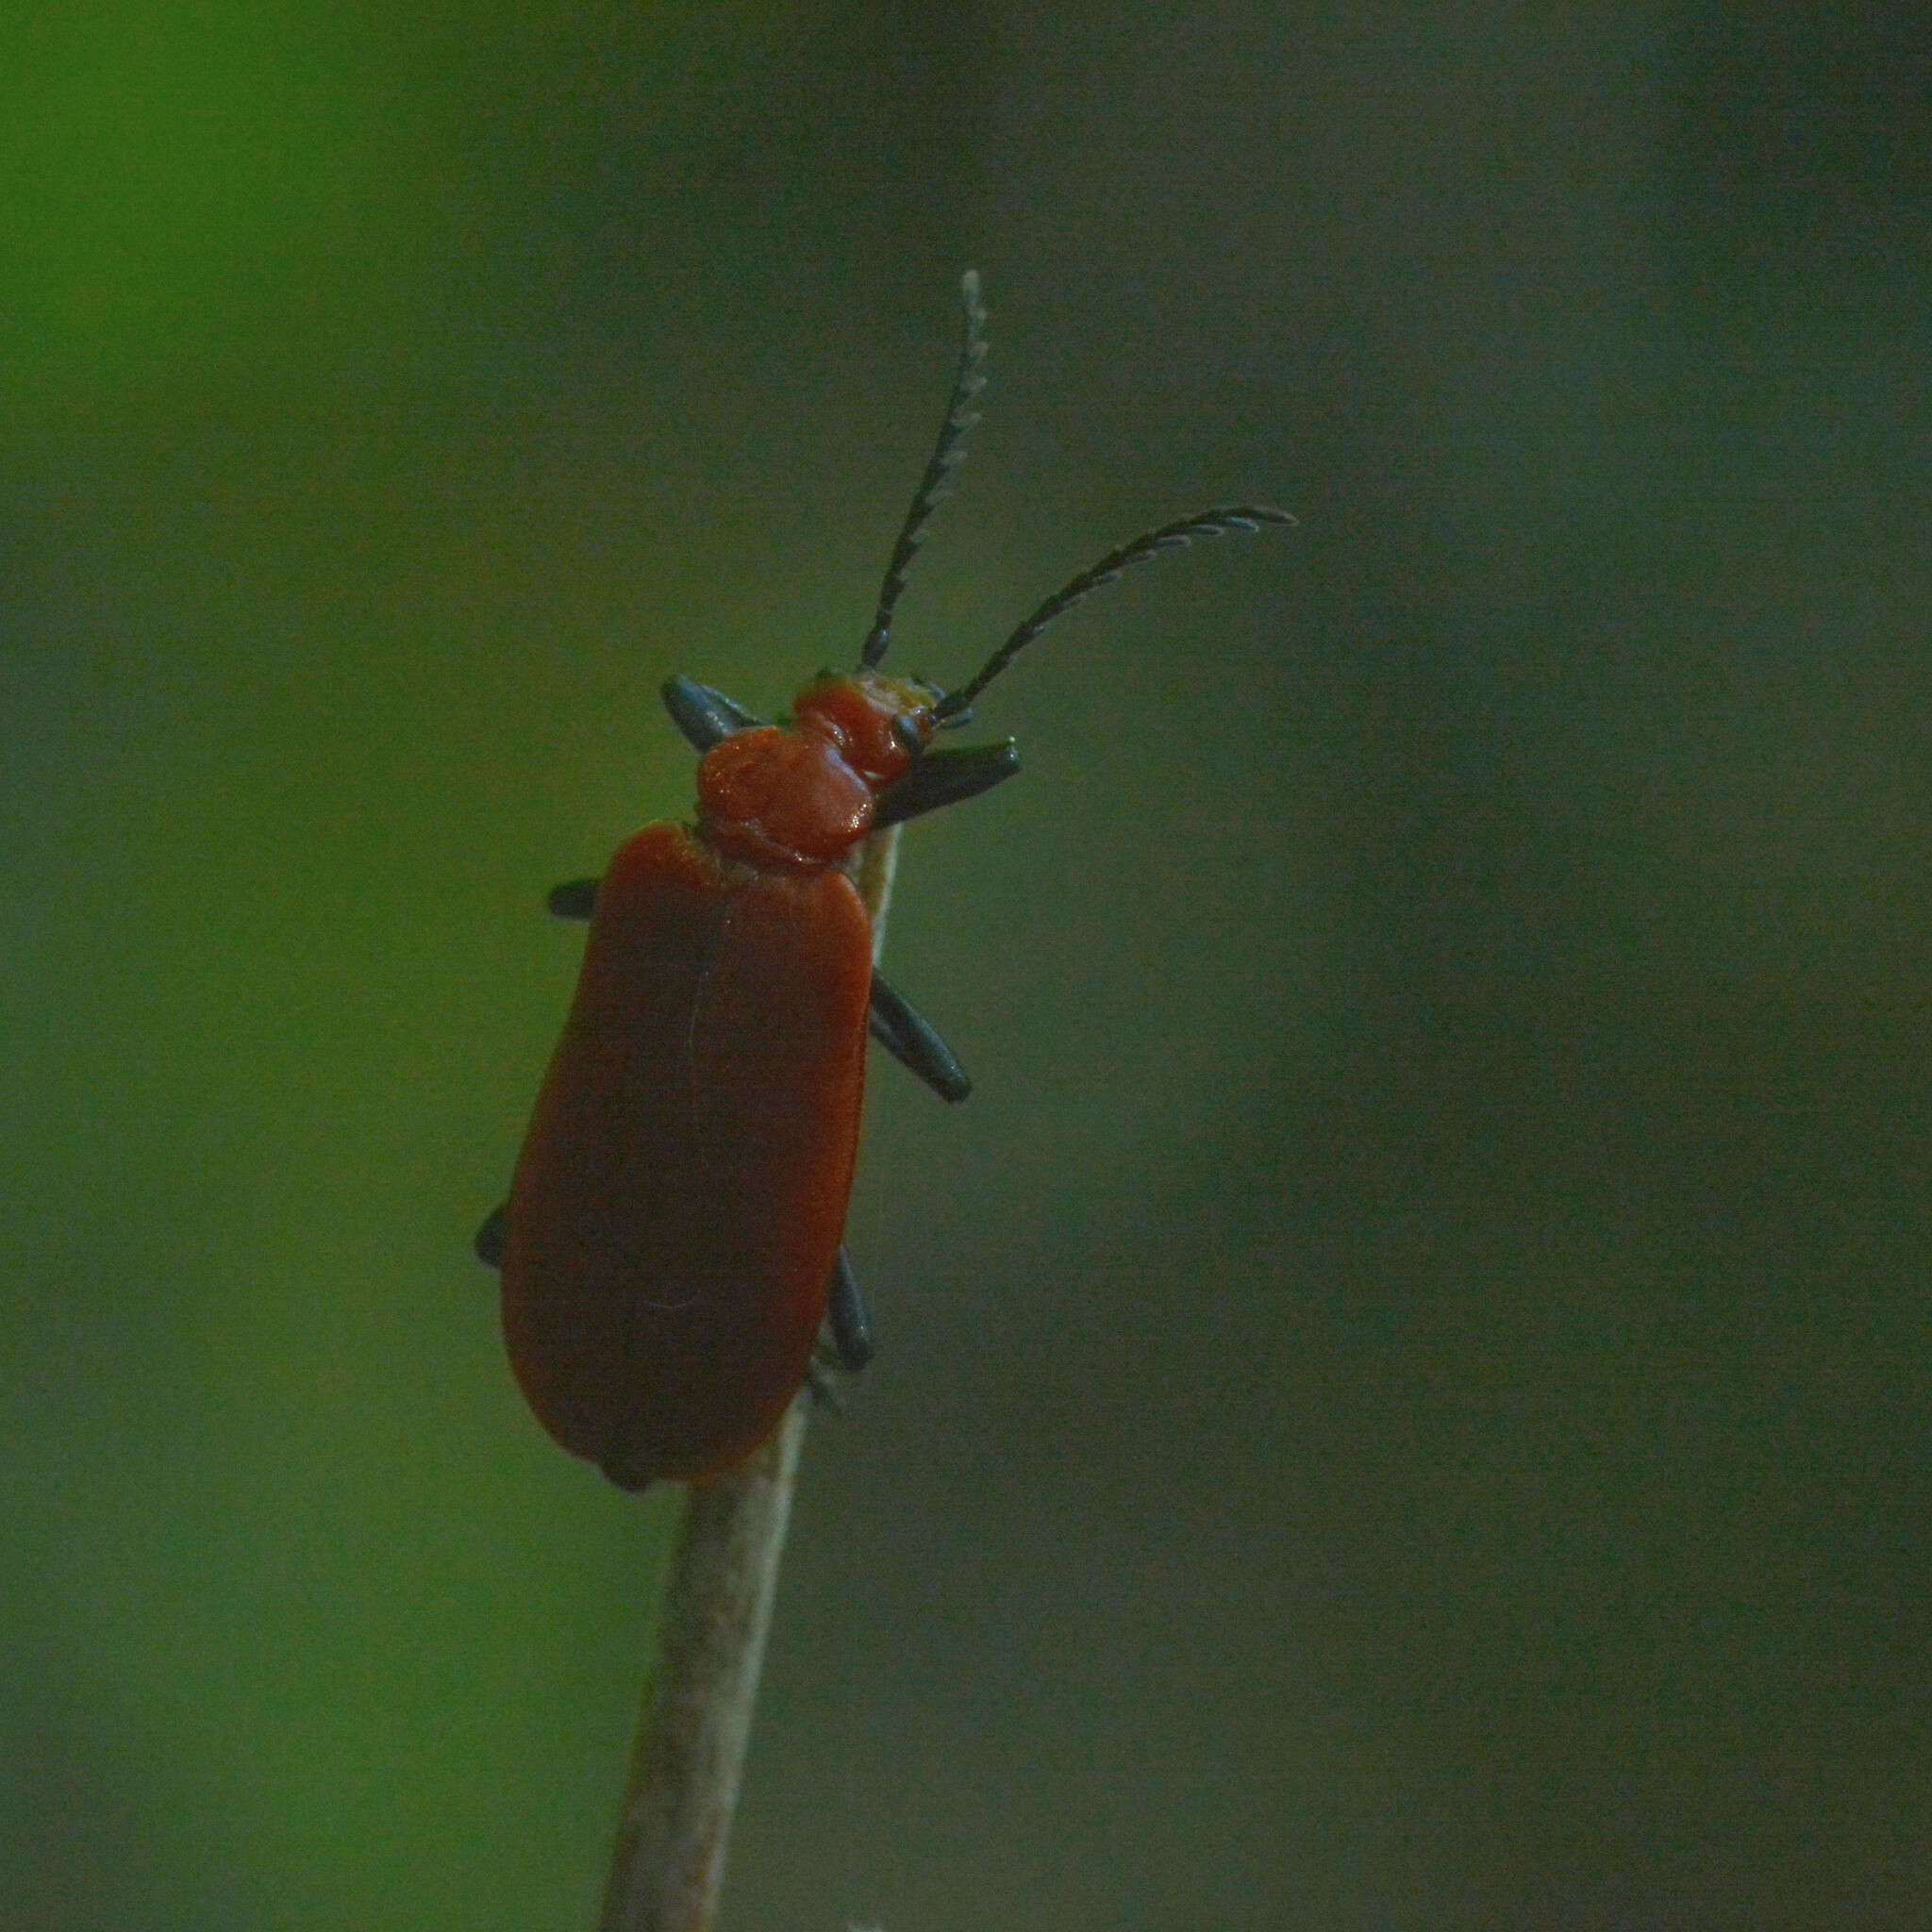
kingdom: Animalia
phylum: Arthropoda
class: Insecta
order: Coleoptera
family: Pyrochroidae
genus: Pyrochroa
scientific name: Pyrochroa serraticornis
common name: Red-headed cardinal beetle
